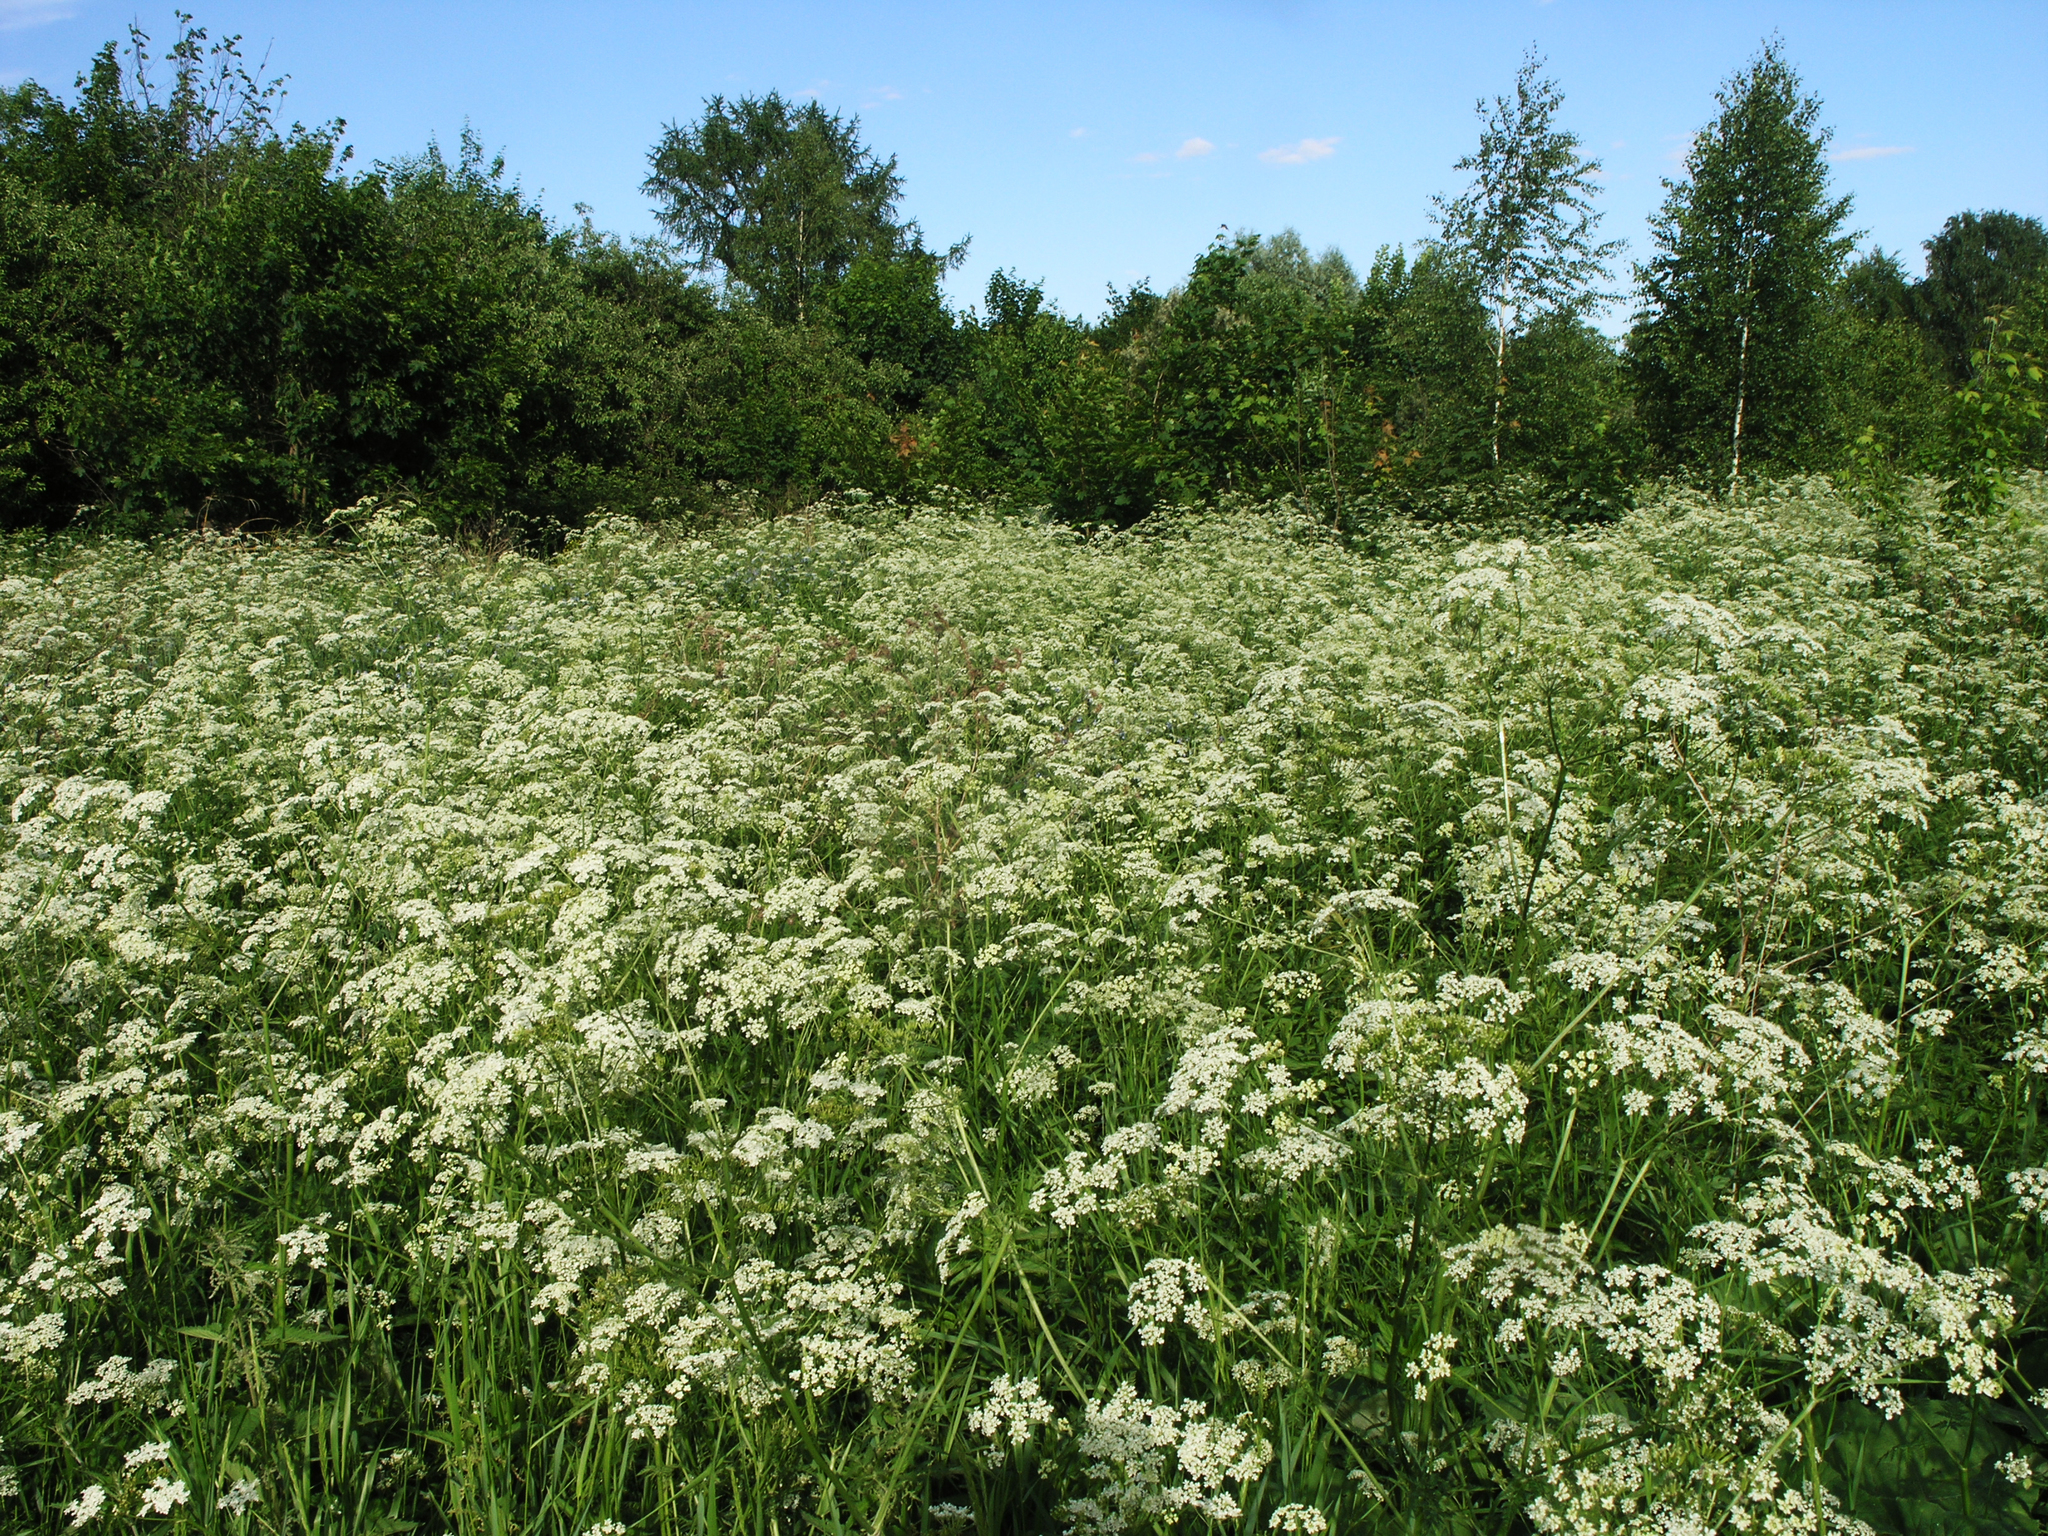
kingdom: Plantae
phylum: Tracheophyta
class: Magnoliopsida
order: Apiales
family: Apiaceae
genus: Anthriscus
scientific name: Anthriscus sylvestris
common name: Cow parsley
